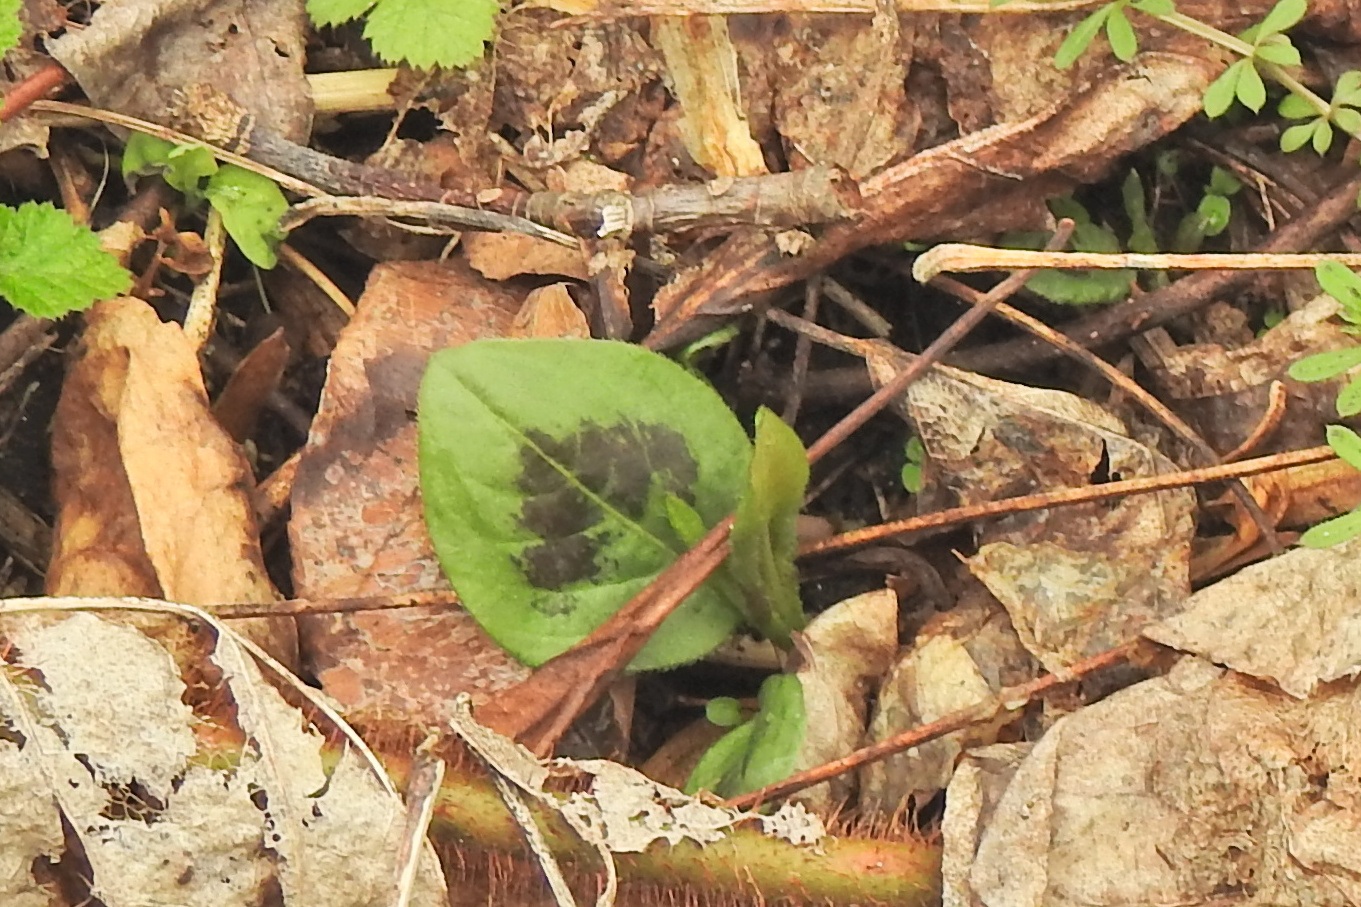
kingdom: Plantae
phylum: Tracheophyta
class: Magnoliopsida
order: Caryophyllales
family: Polygonaceae
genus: Persicaria
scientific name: Persicaria virginiana
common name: Jumpseed
